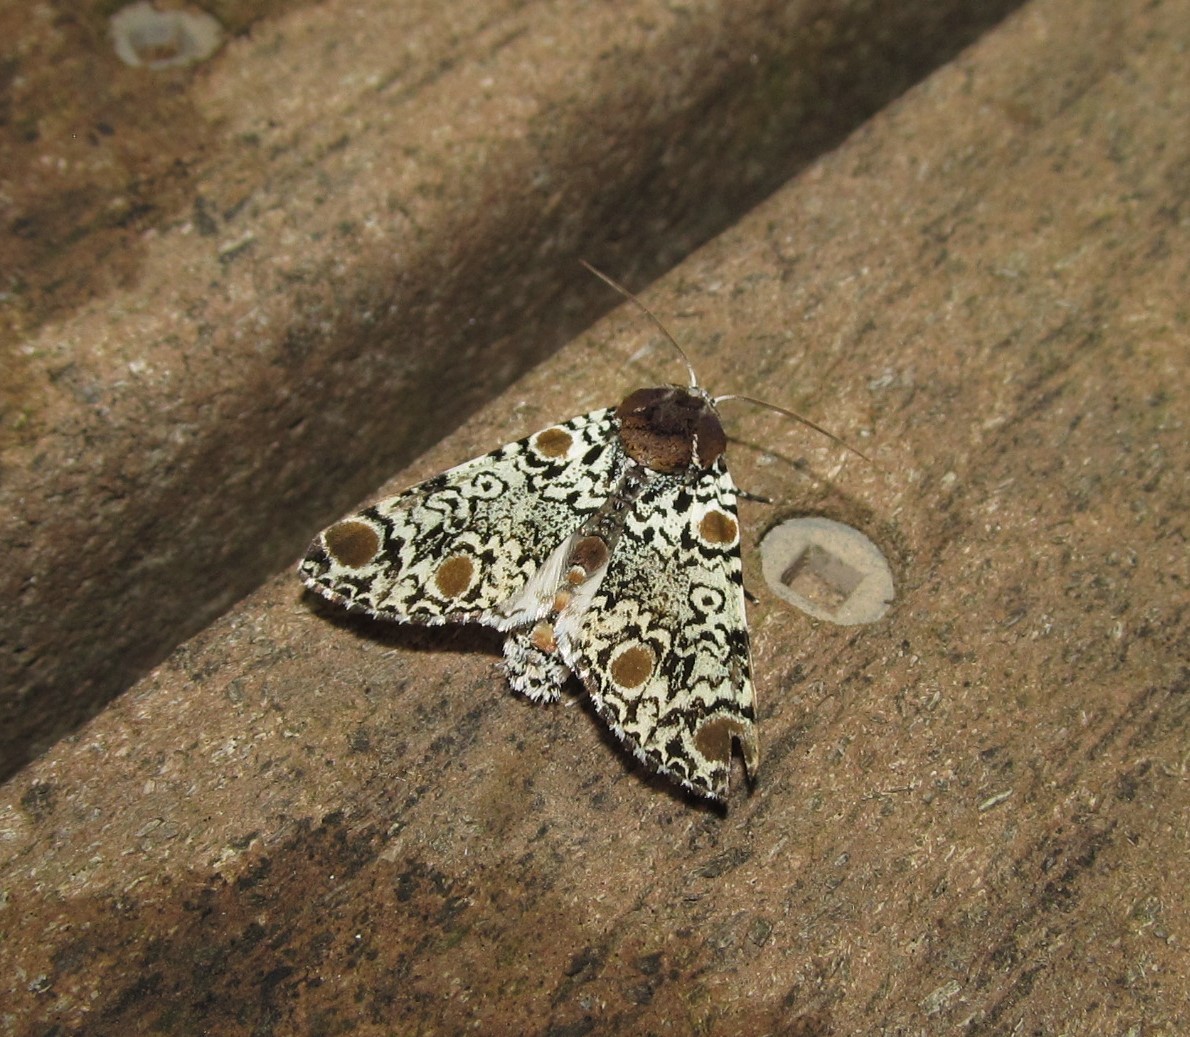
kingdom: Animalia
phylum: Arthropoda
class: Insecta
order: Lepidoptera
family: Noctuidae
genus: Harrisimemna
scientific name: Harrisimemna trisignata
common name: Harris threespot
